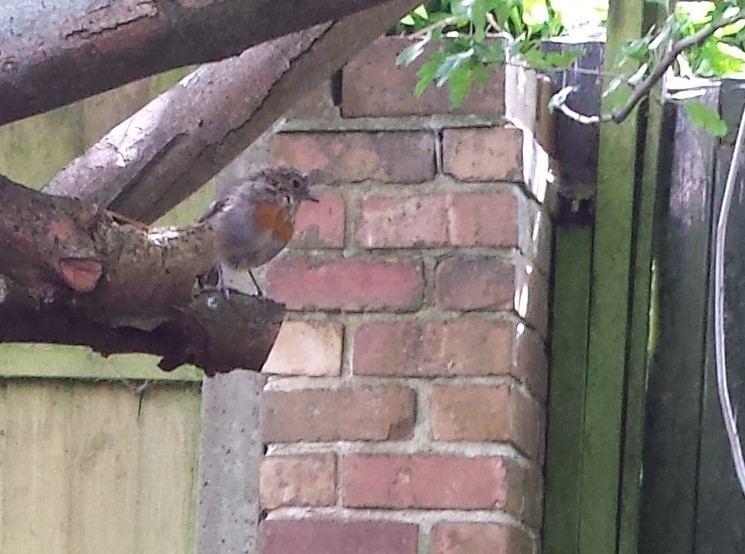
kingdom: Animalia
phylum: Chordata
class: Aves
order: Passeriformes
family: Muscicapidae
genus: Erithacus
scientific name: Erithacus rubecula
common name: European robin
